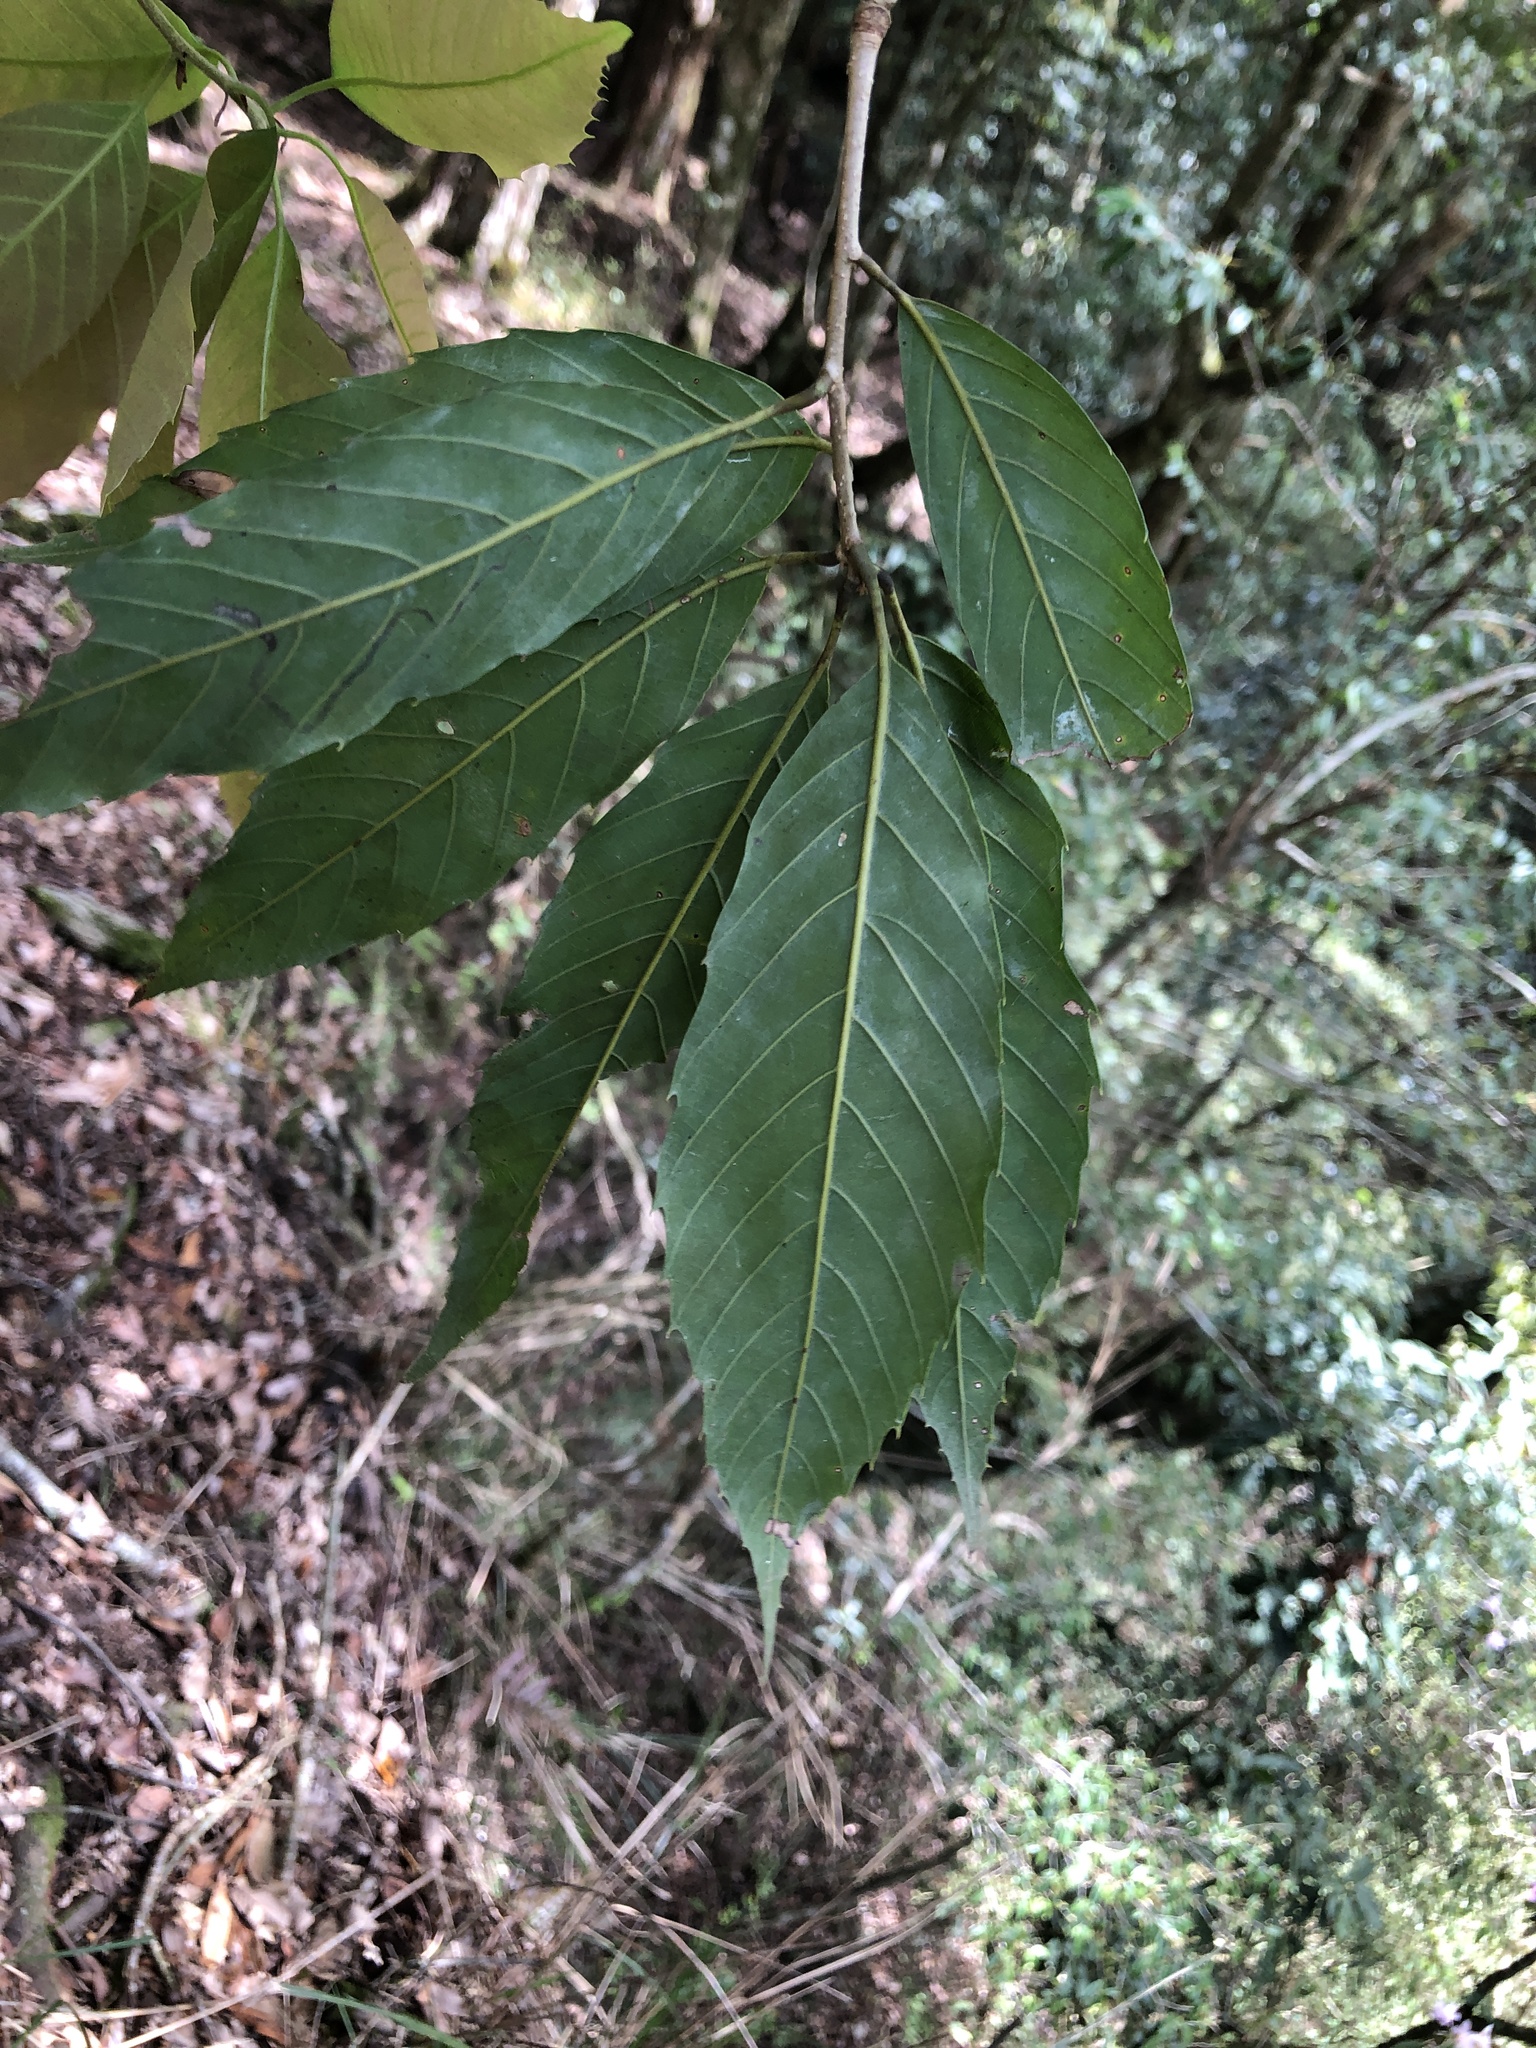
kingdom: Plantae
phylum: Tracheophyta
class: Magnoliopsida
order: Fagales
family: Fagaceae
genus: Quercus
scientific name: Quercus stenophylloides
